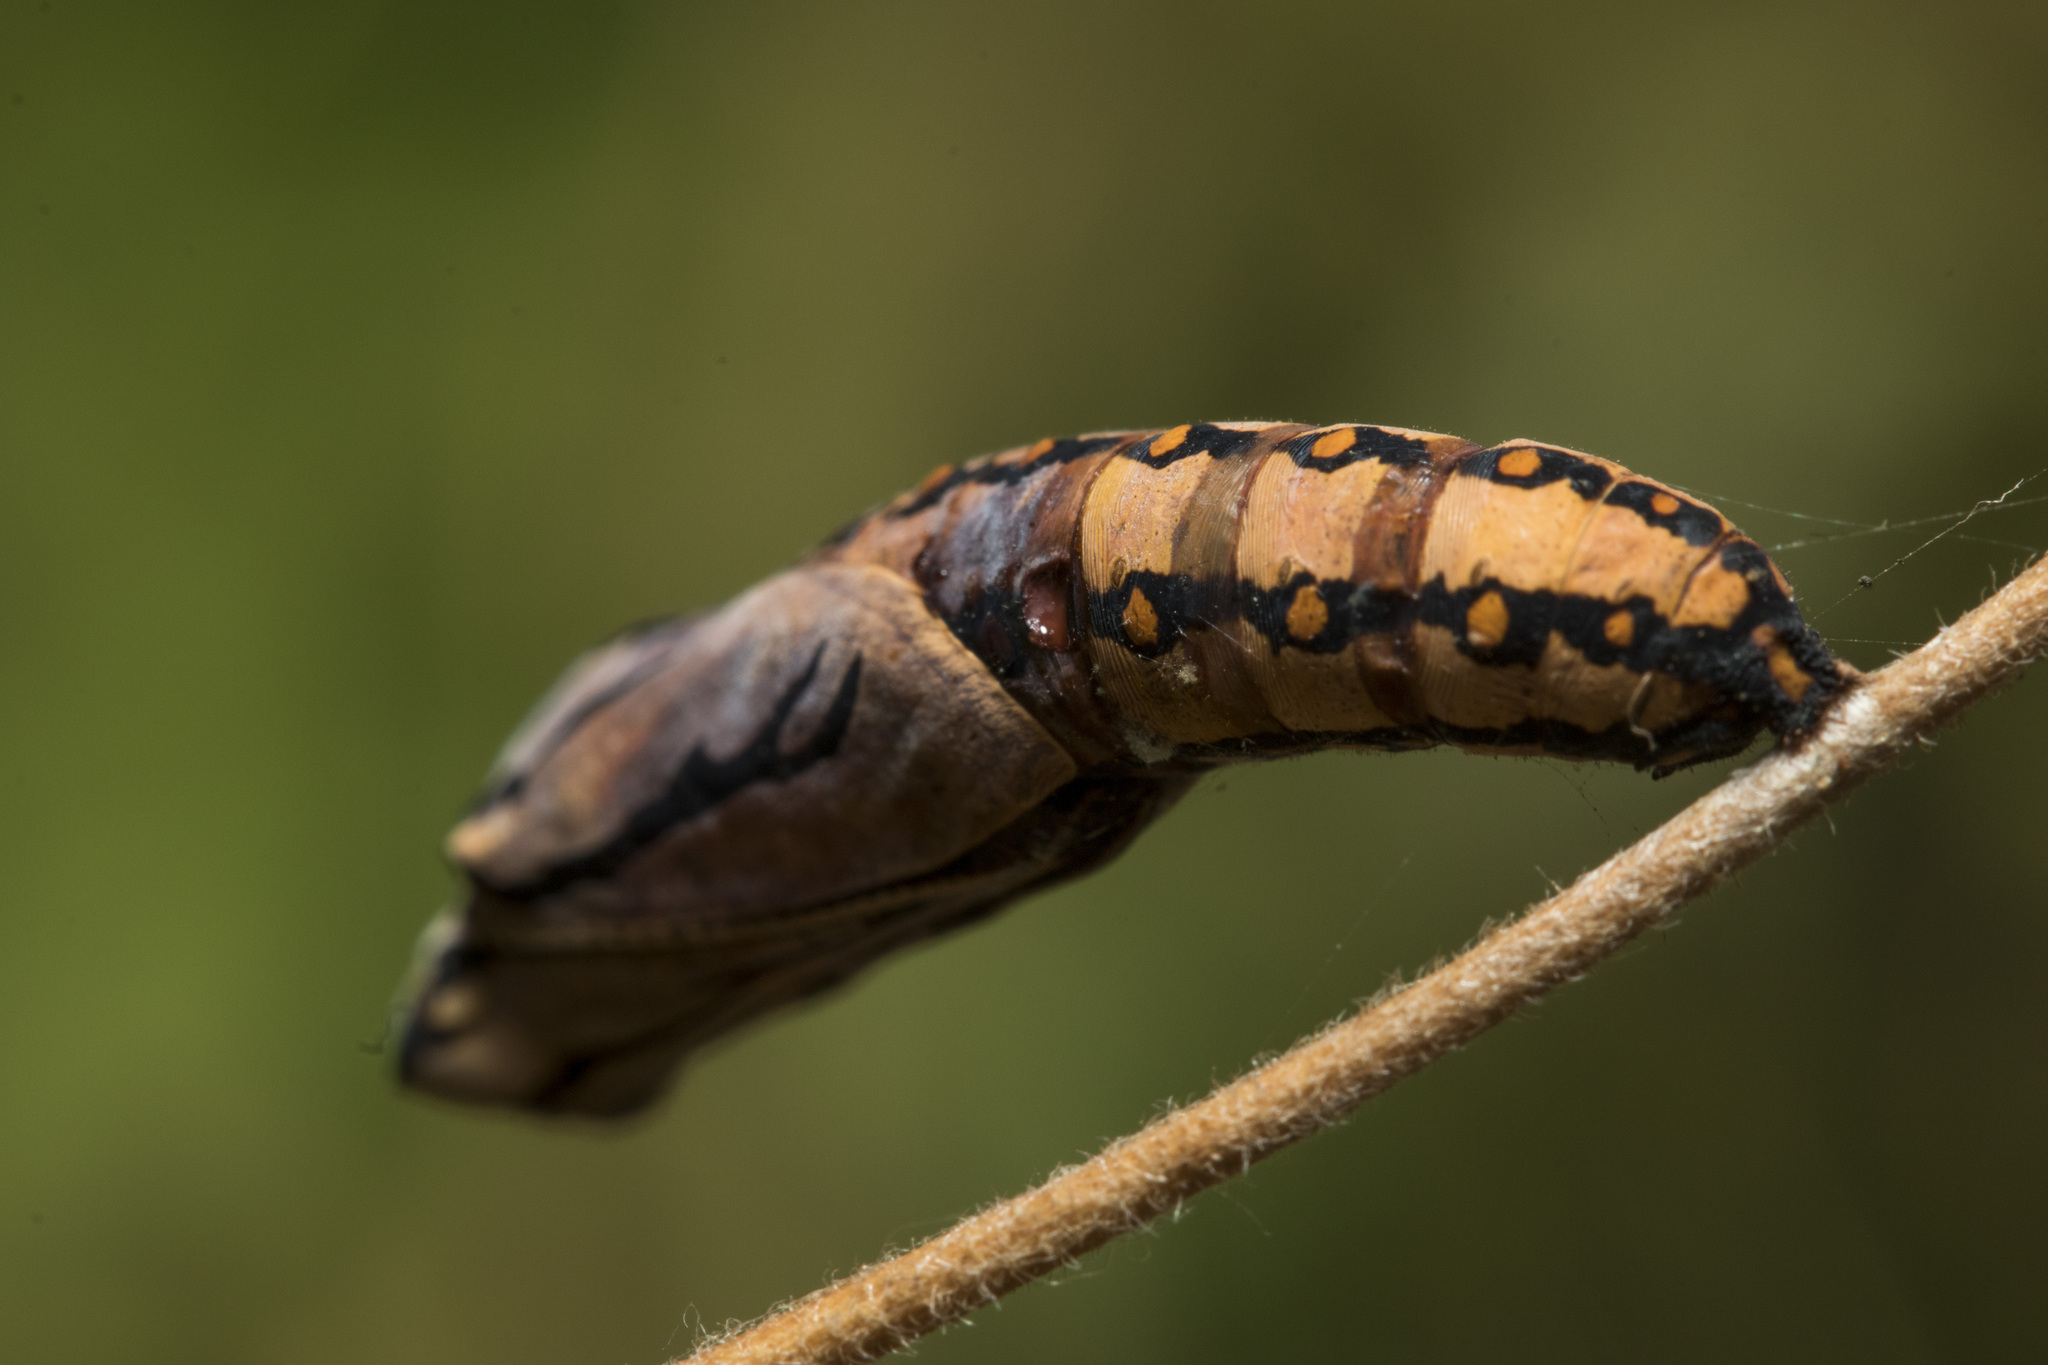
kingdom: Animalia
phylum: Arthropoda
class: Insecta
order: Lepidoptera
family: Nymphalidae
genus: Acraea
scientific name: Acraea terpsicore
